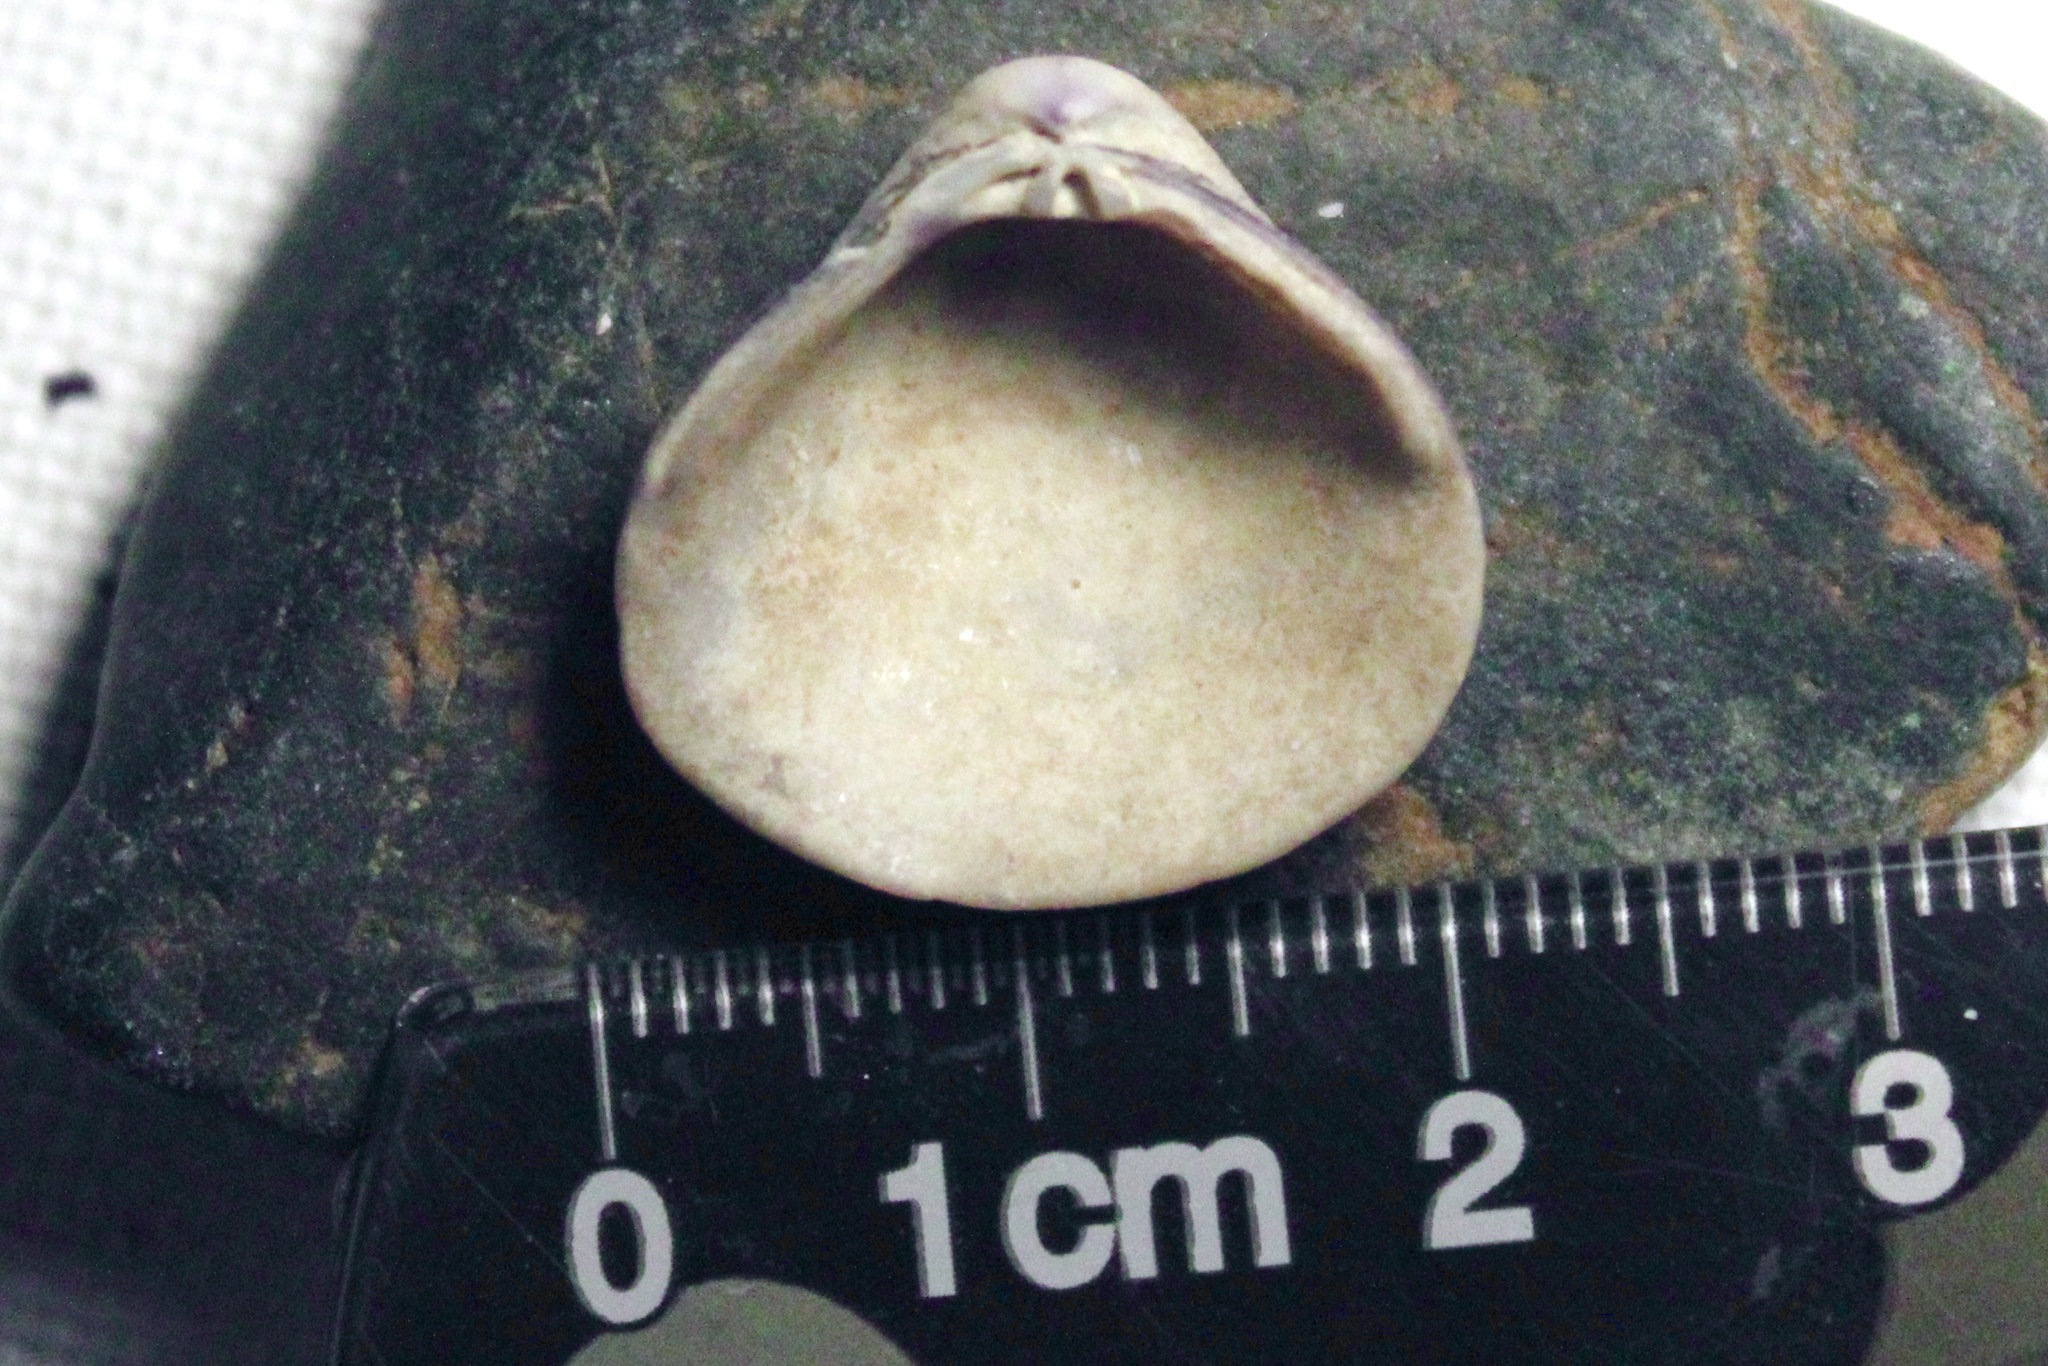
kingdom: Animalia
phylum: Mollusca
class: Bivalvia
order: Venerida
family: Cyrenidae
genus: Corbicula
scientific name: Corbicula fluminea
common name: Asian clam
